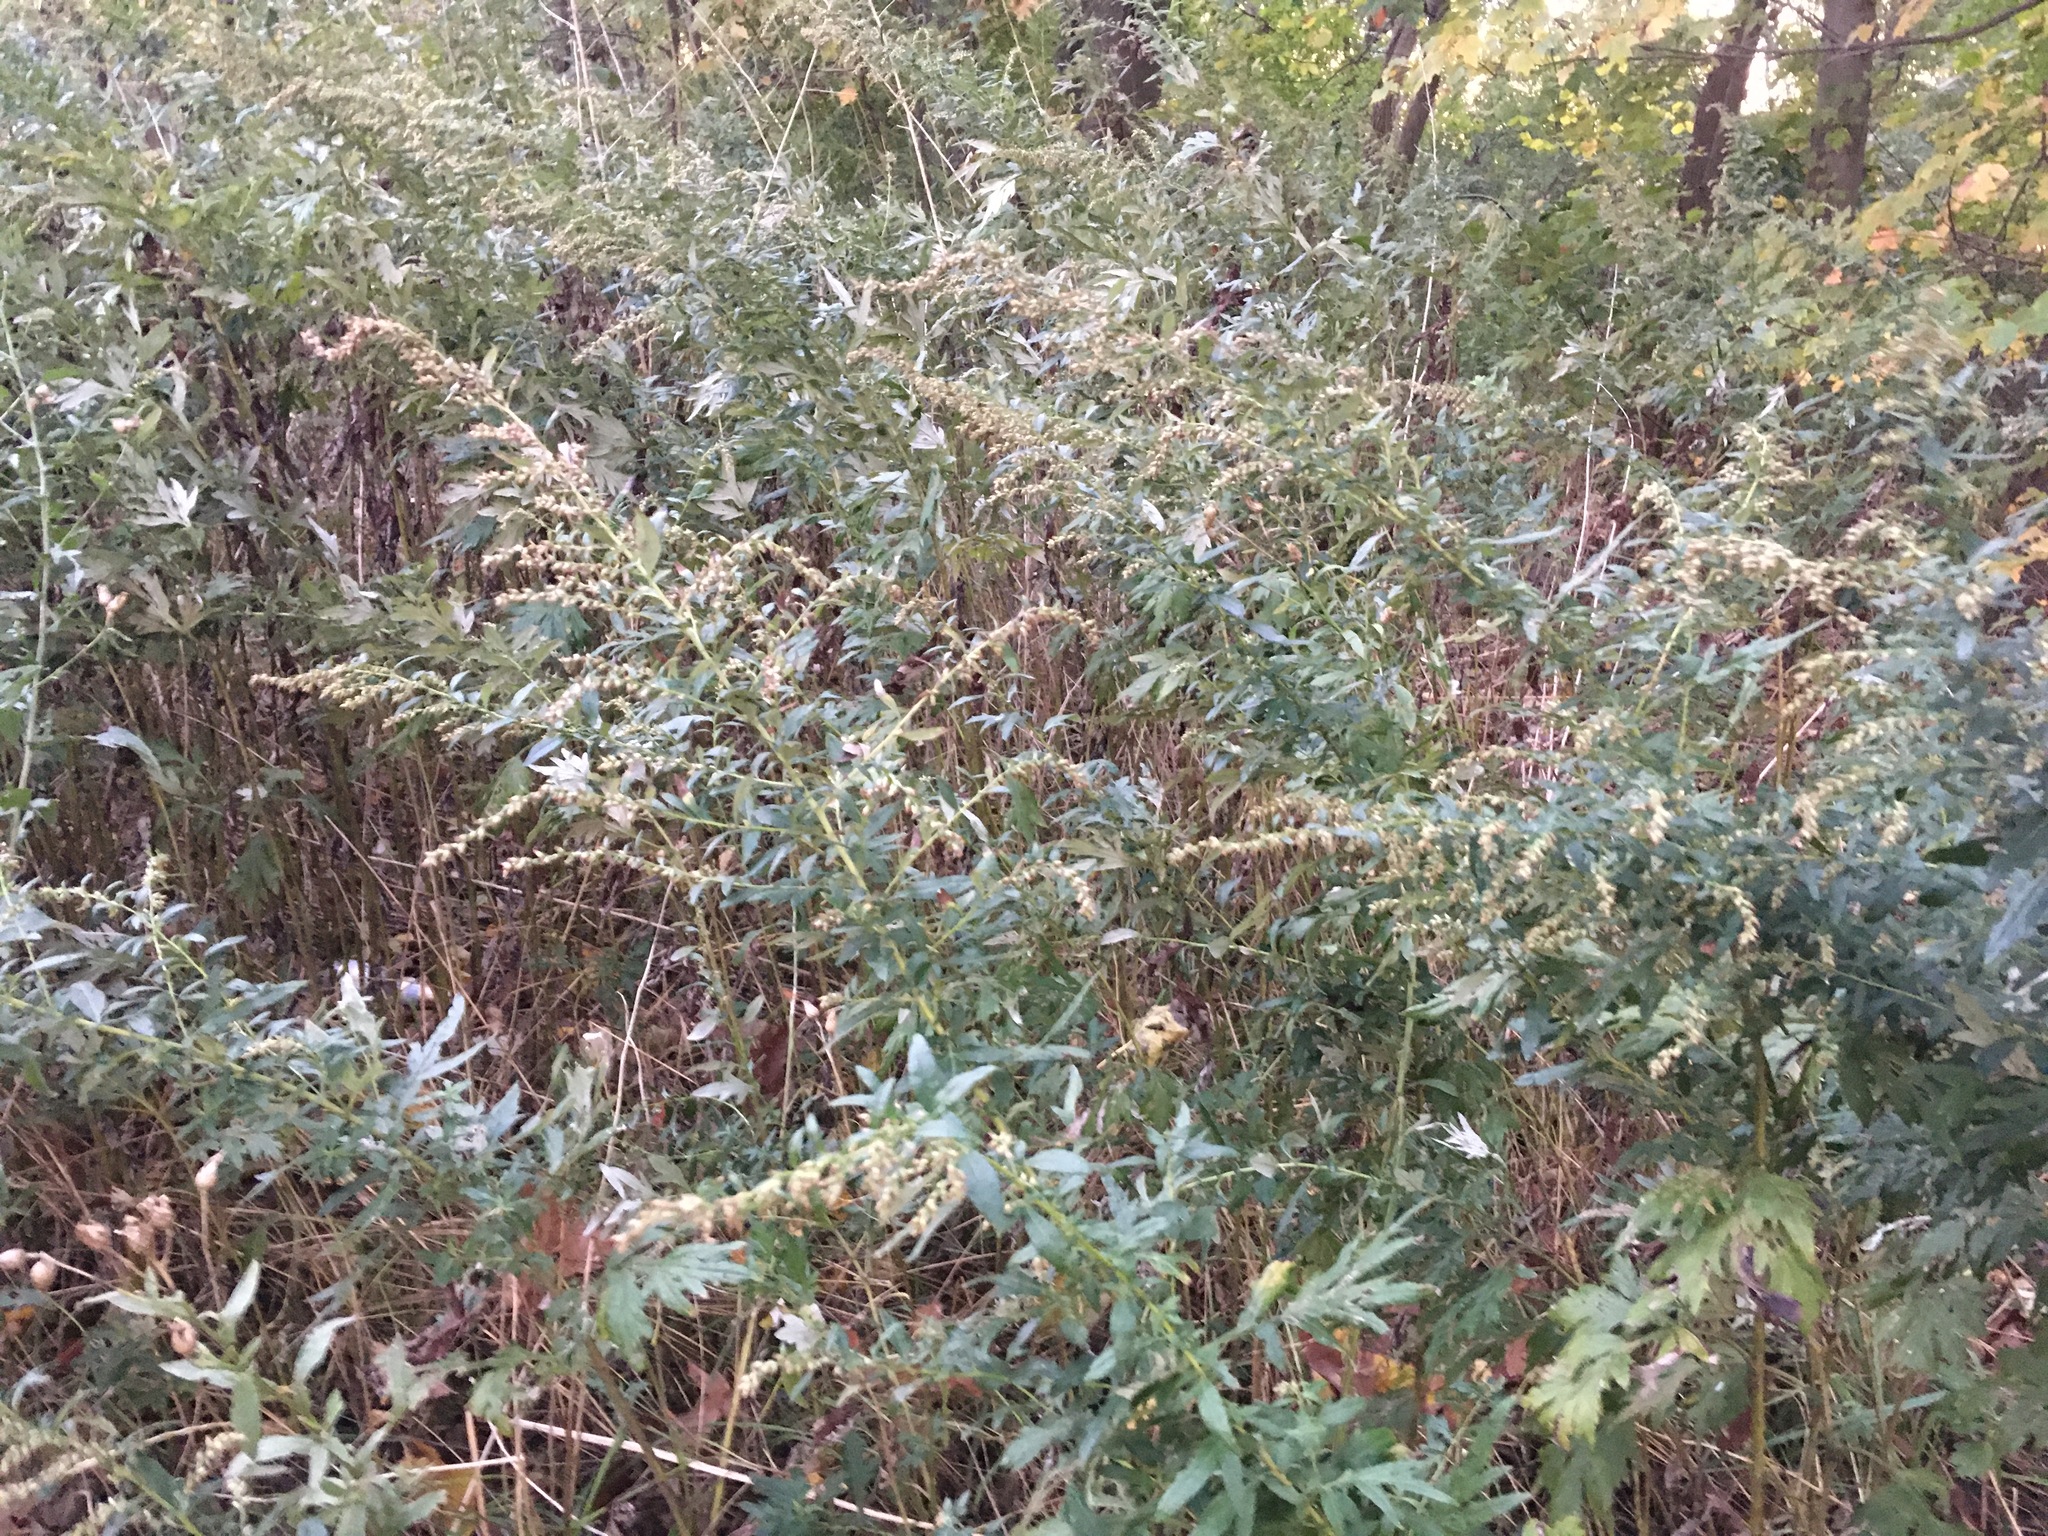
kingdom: Plantae
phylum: Tracheophyta
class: Magnoliopsida
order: Asterales
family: Asteraceae
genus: Artemisia
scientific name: Artemisia vulgaris
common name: Mugwort
